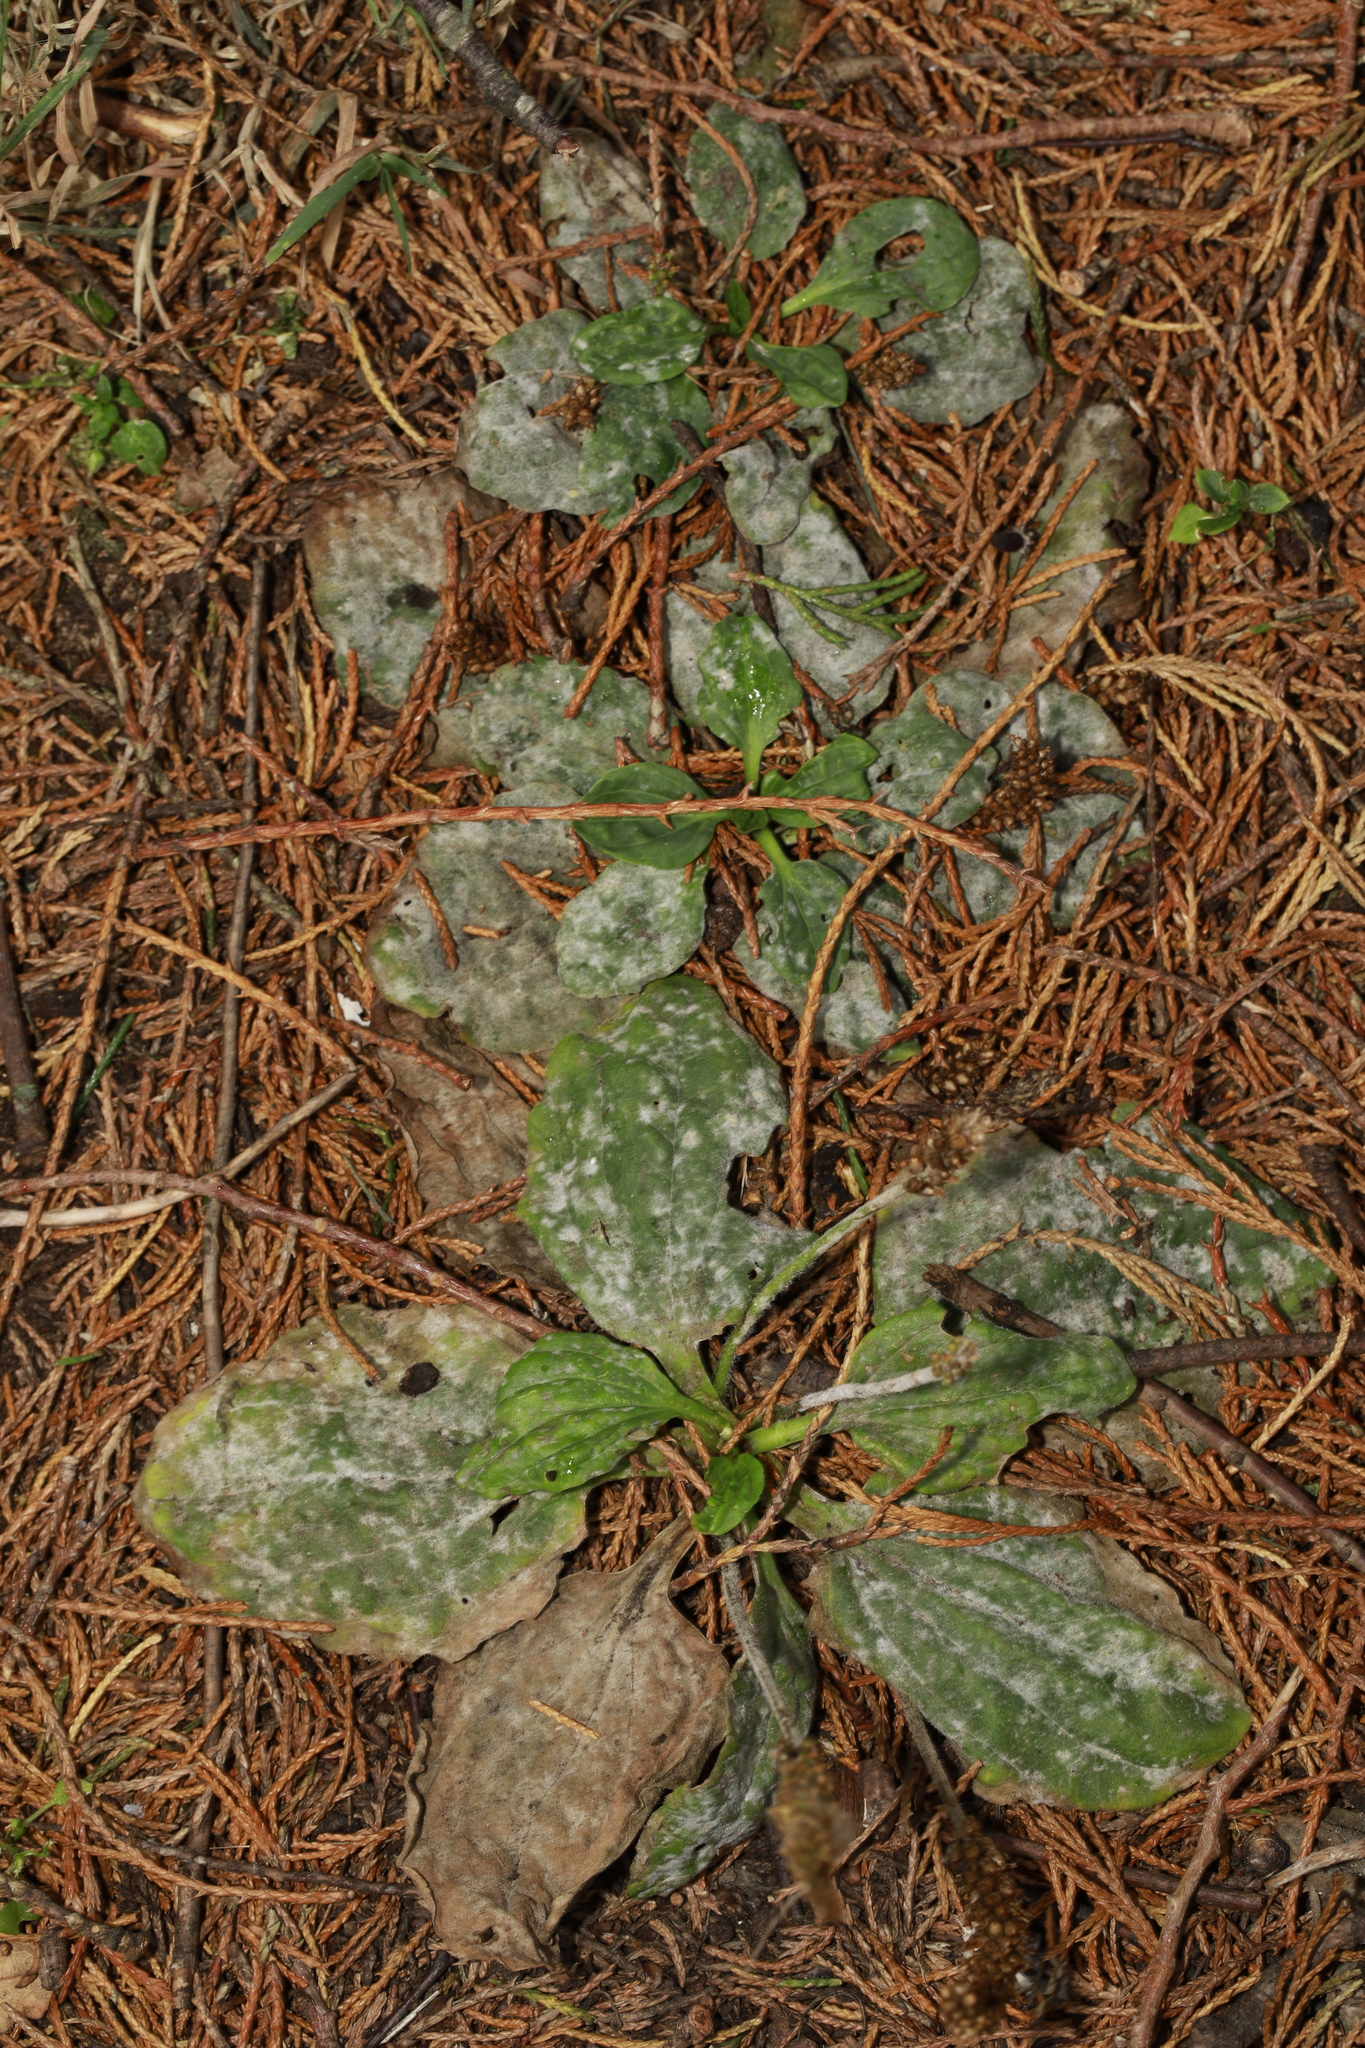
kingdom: Plantae
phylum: Tracheophyta
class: Magnoliopsida
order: Lamiales
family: Plantaginaceae
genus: Plantago
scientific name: Plantago major
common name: Common plantain
